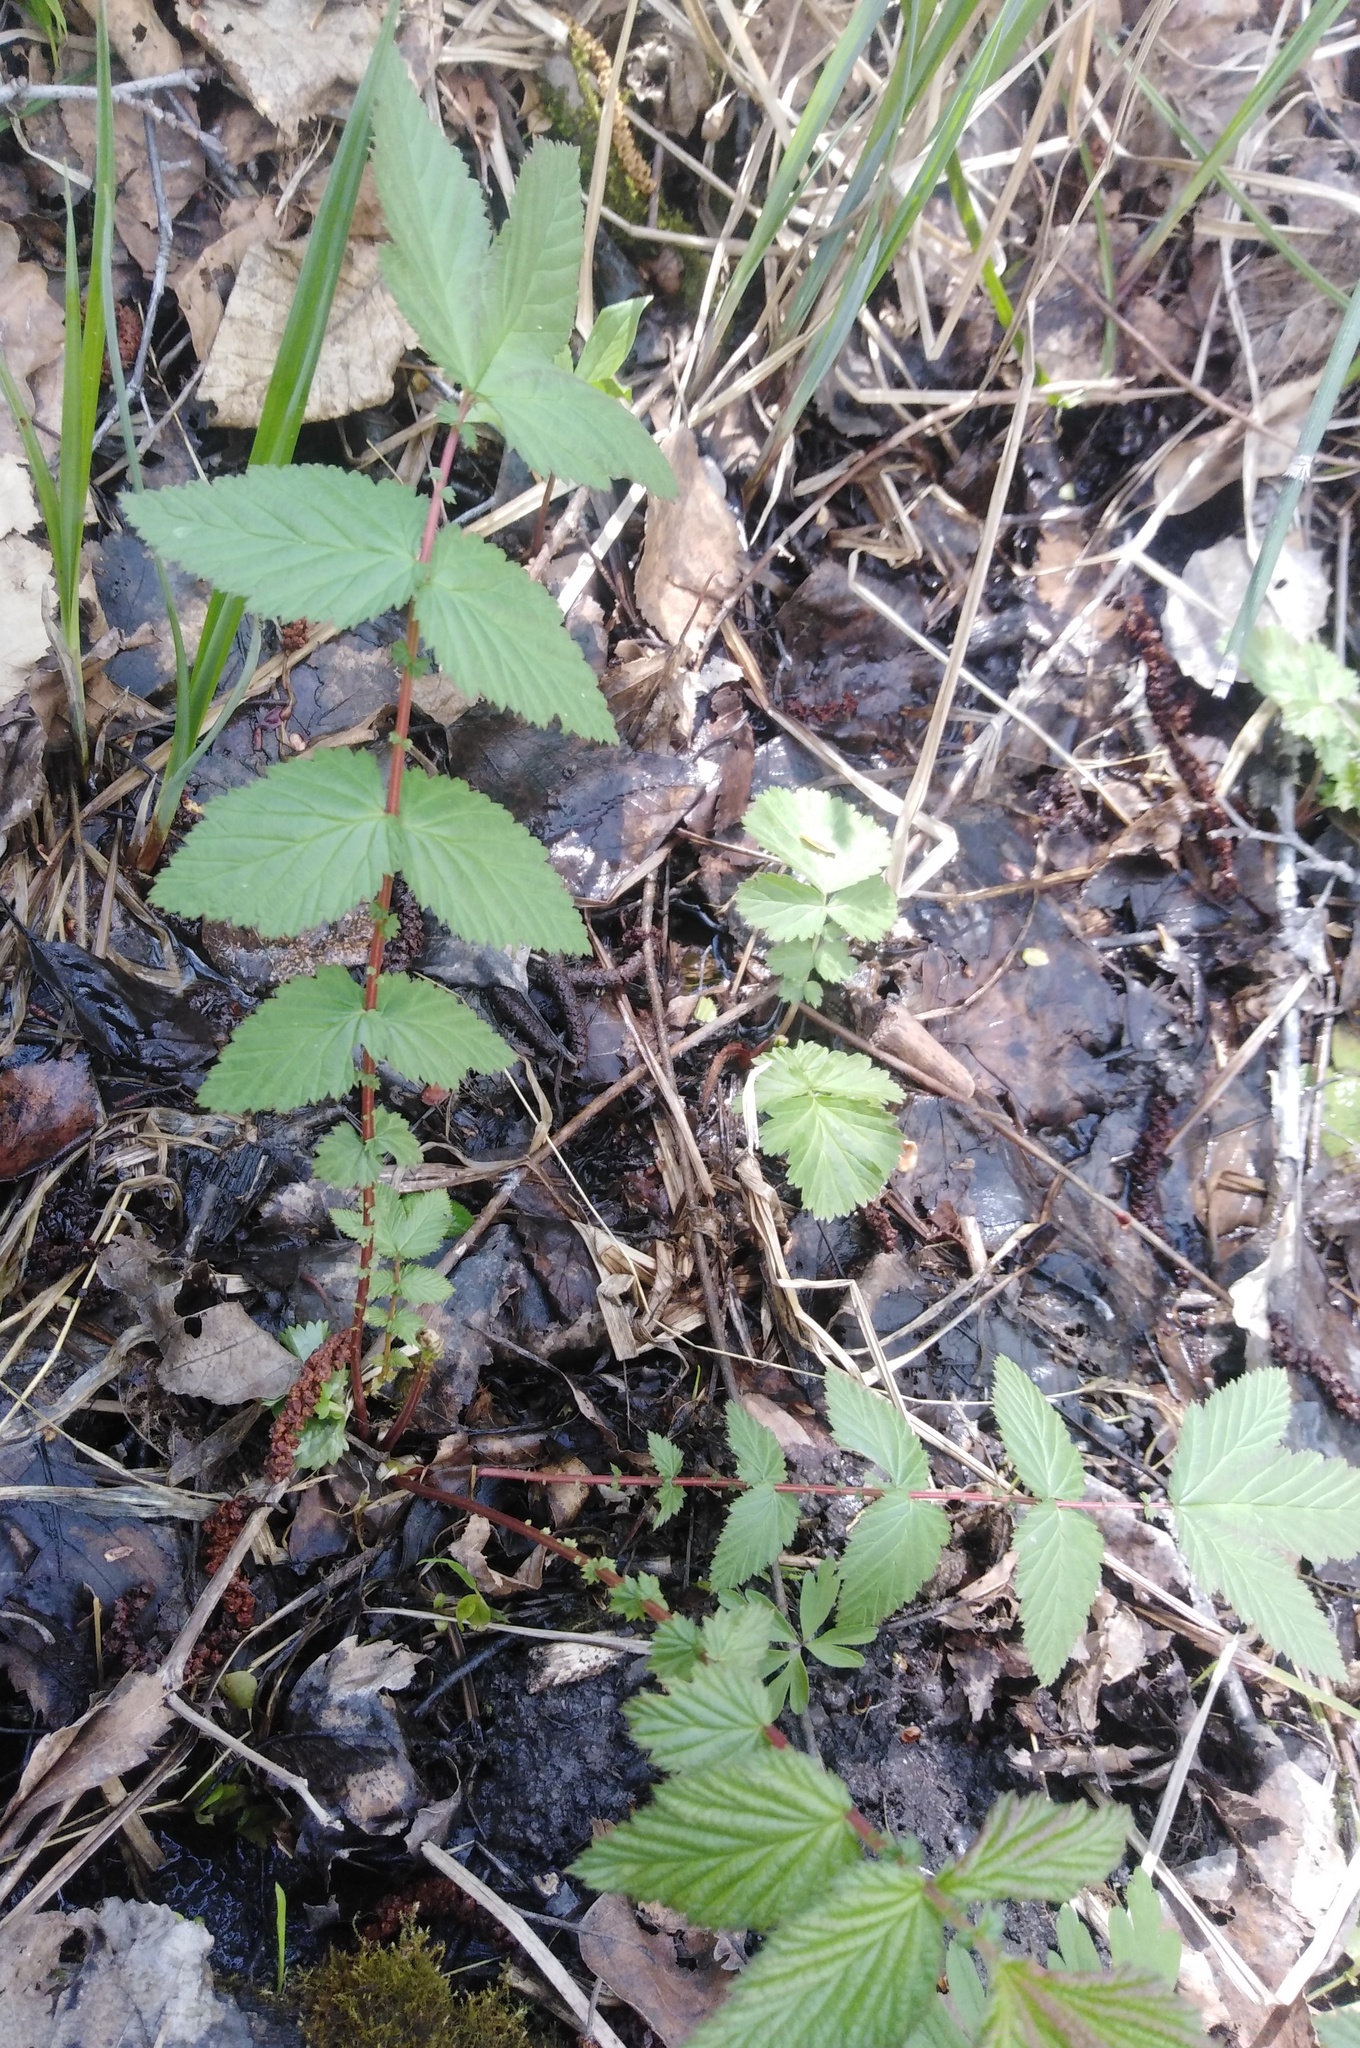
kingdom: Plantae
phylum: Tracheophyta
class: Magnoliopsida
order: Rosales
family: Rosaceae
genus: Filipendula
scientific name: Filipendula ulmaria
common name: Meadowsweet
